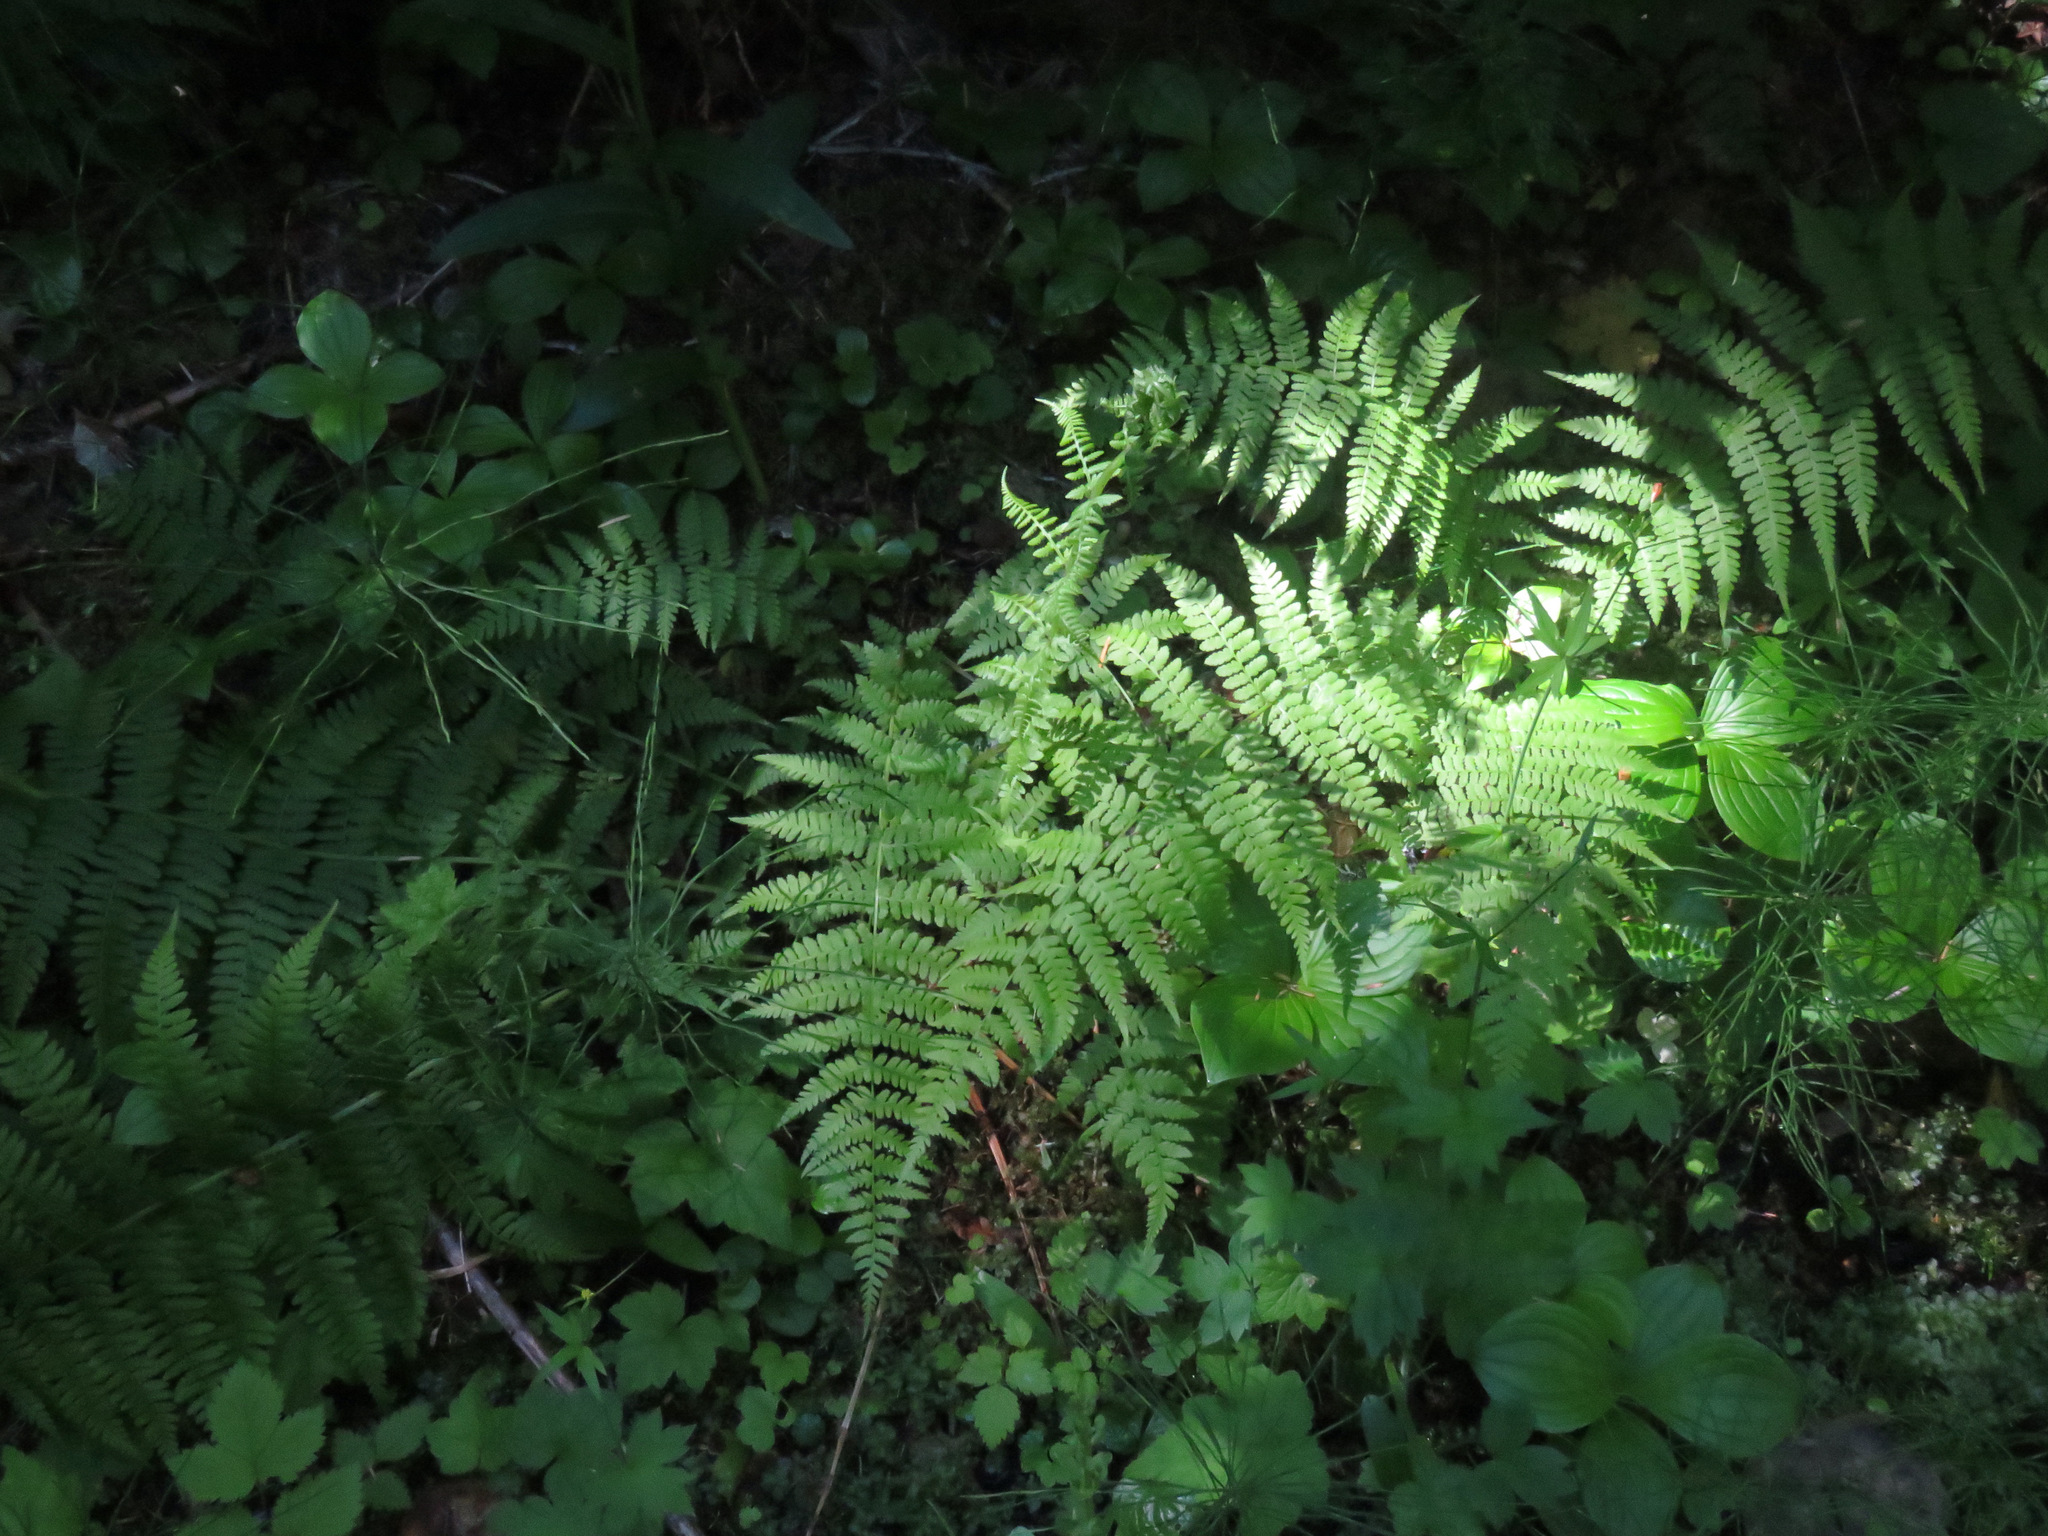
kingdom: Plantae
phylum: Tracheophyta
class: Polypodiopsida
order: Polypodiales
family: Athyriaceae
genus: Athyrium
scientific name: Athyrium filix-femina
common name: Lady fern
